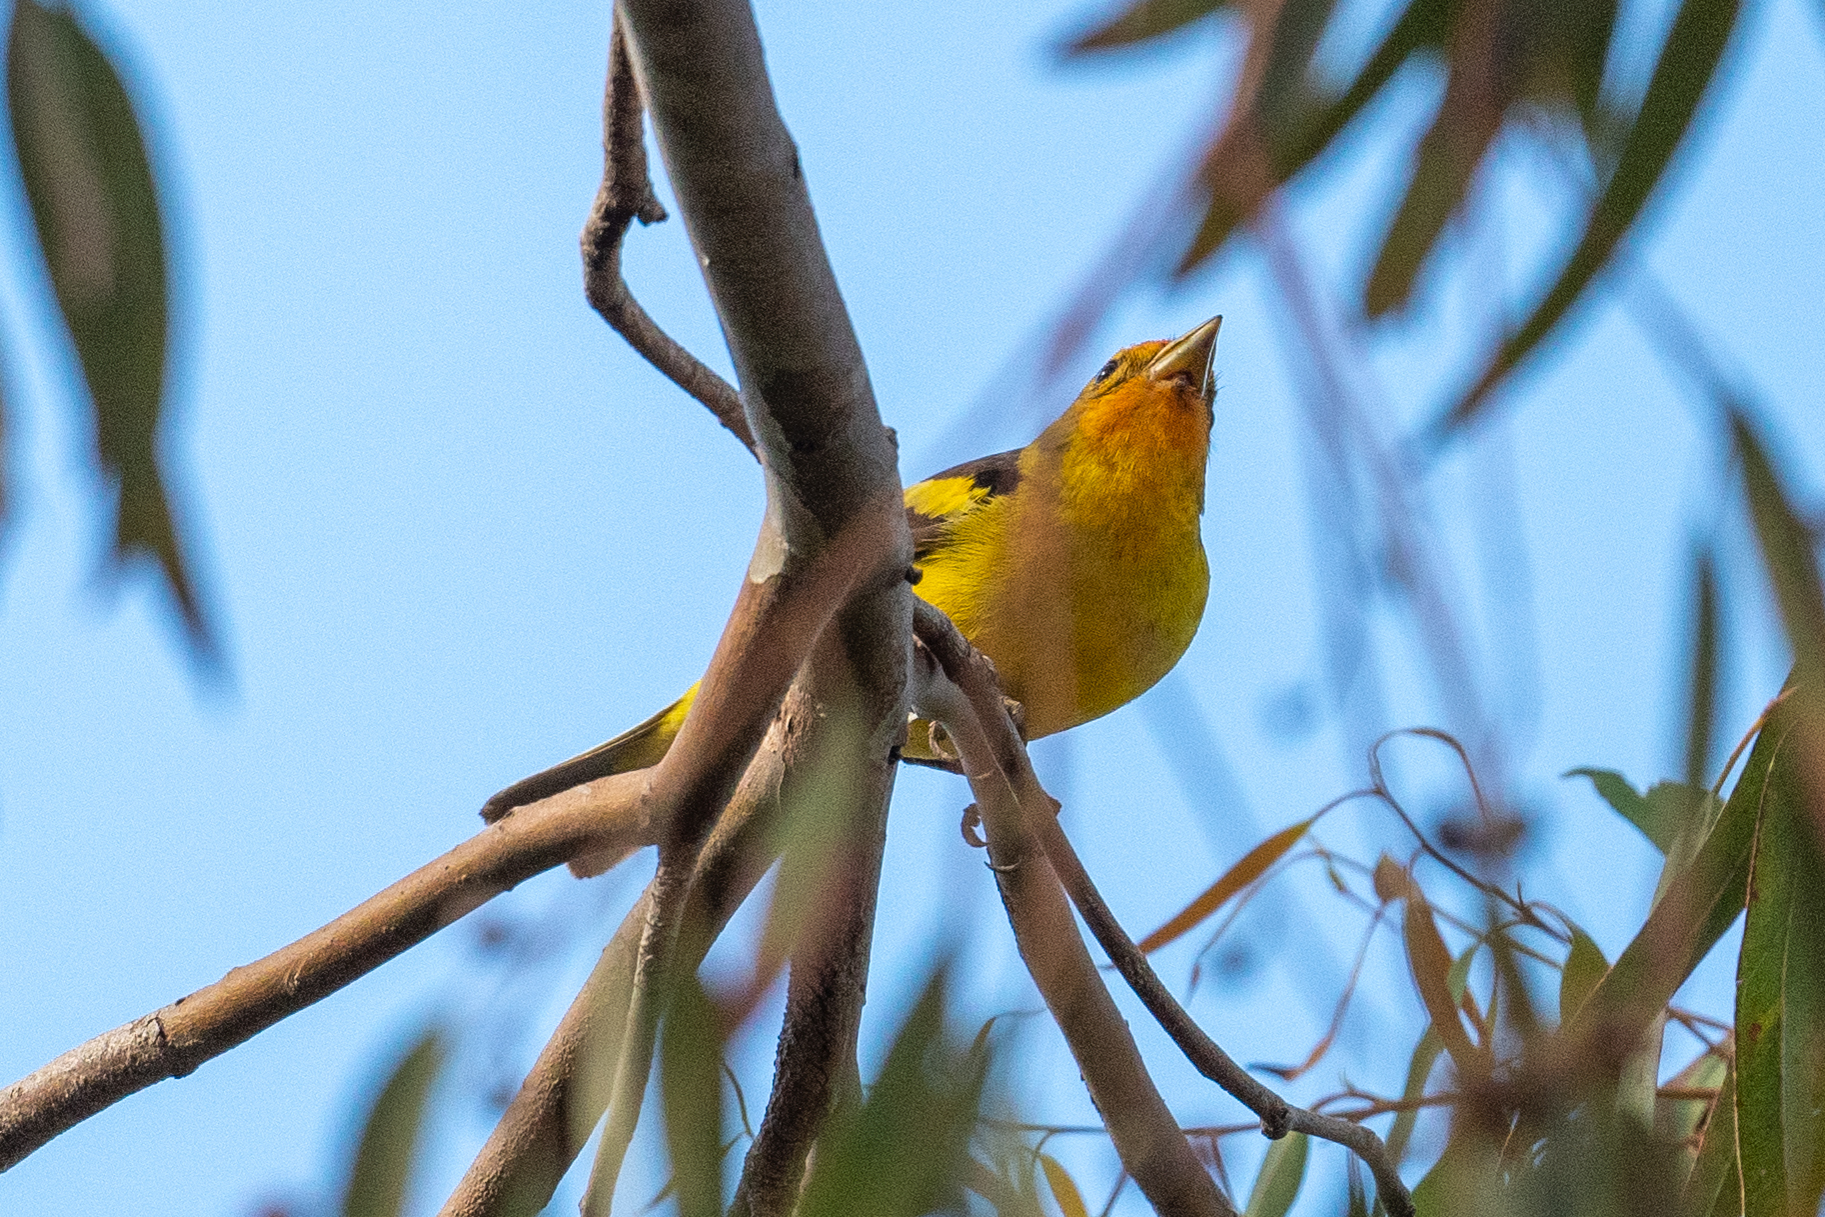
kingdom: Animalia
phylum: Chordata
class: Aves
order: Passeriformes
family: Cardinalidae
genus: Piranga
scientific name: Piranga ludoviciana
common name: Western tanager
